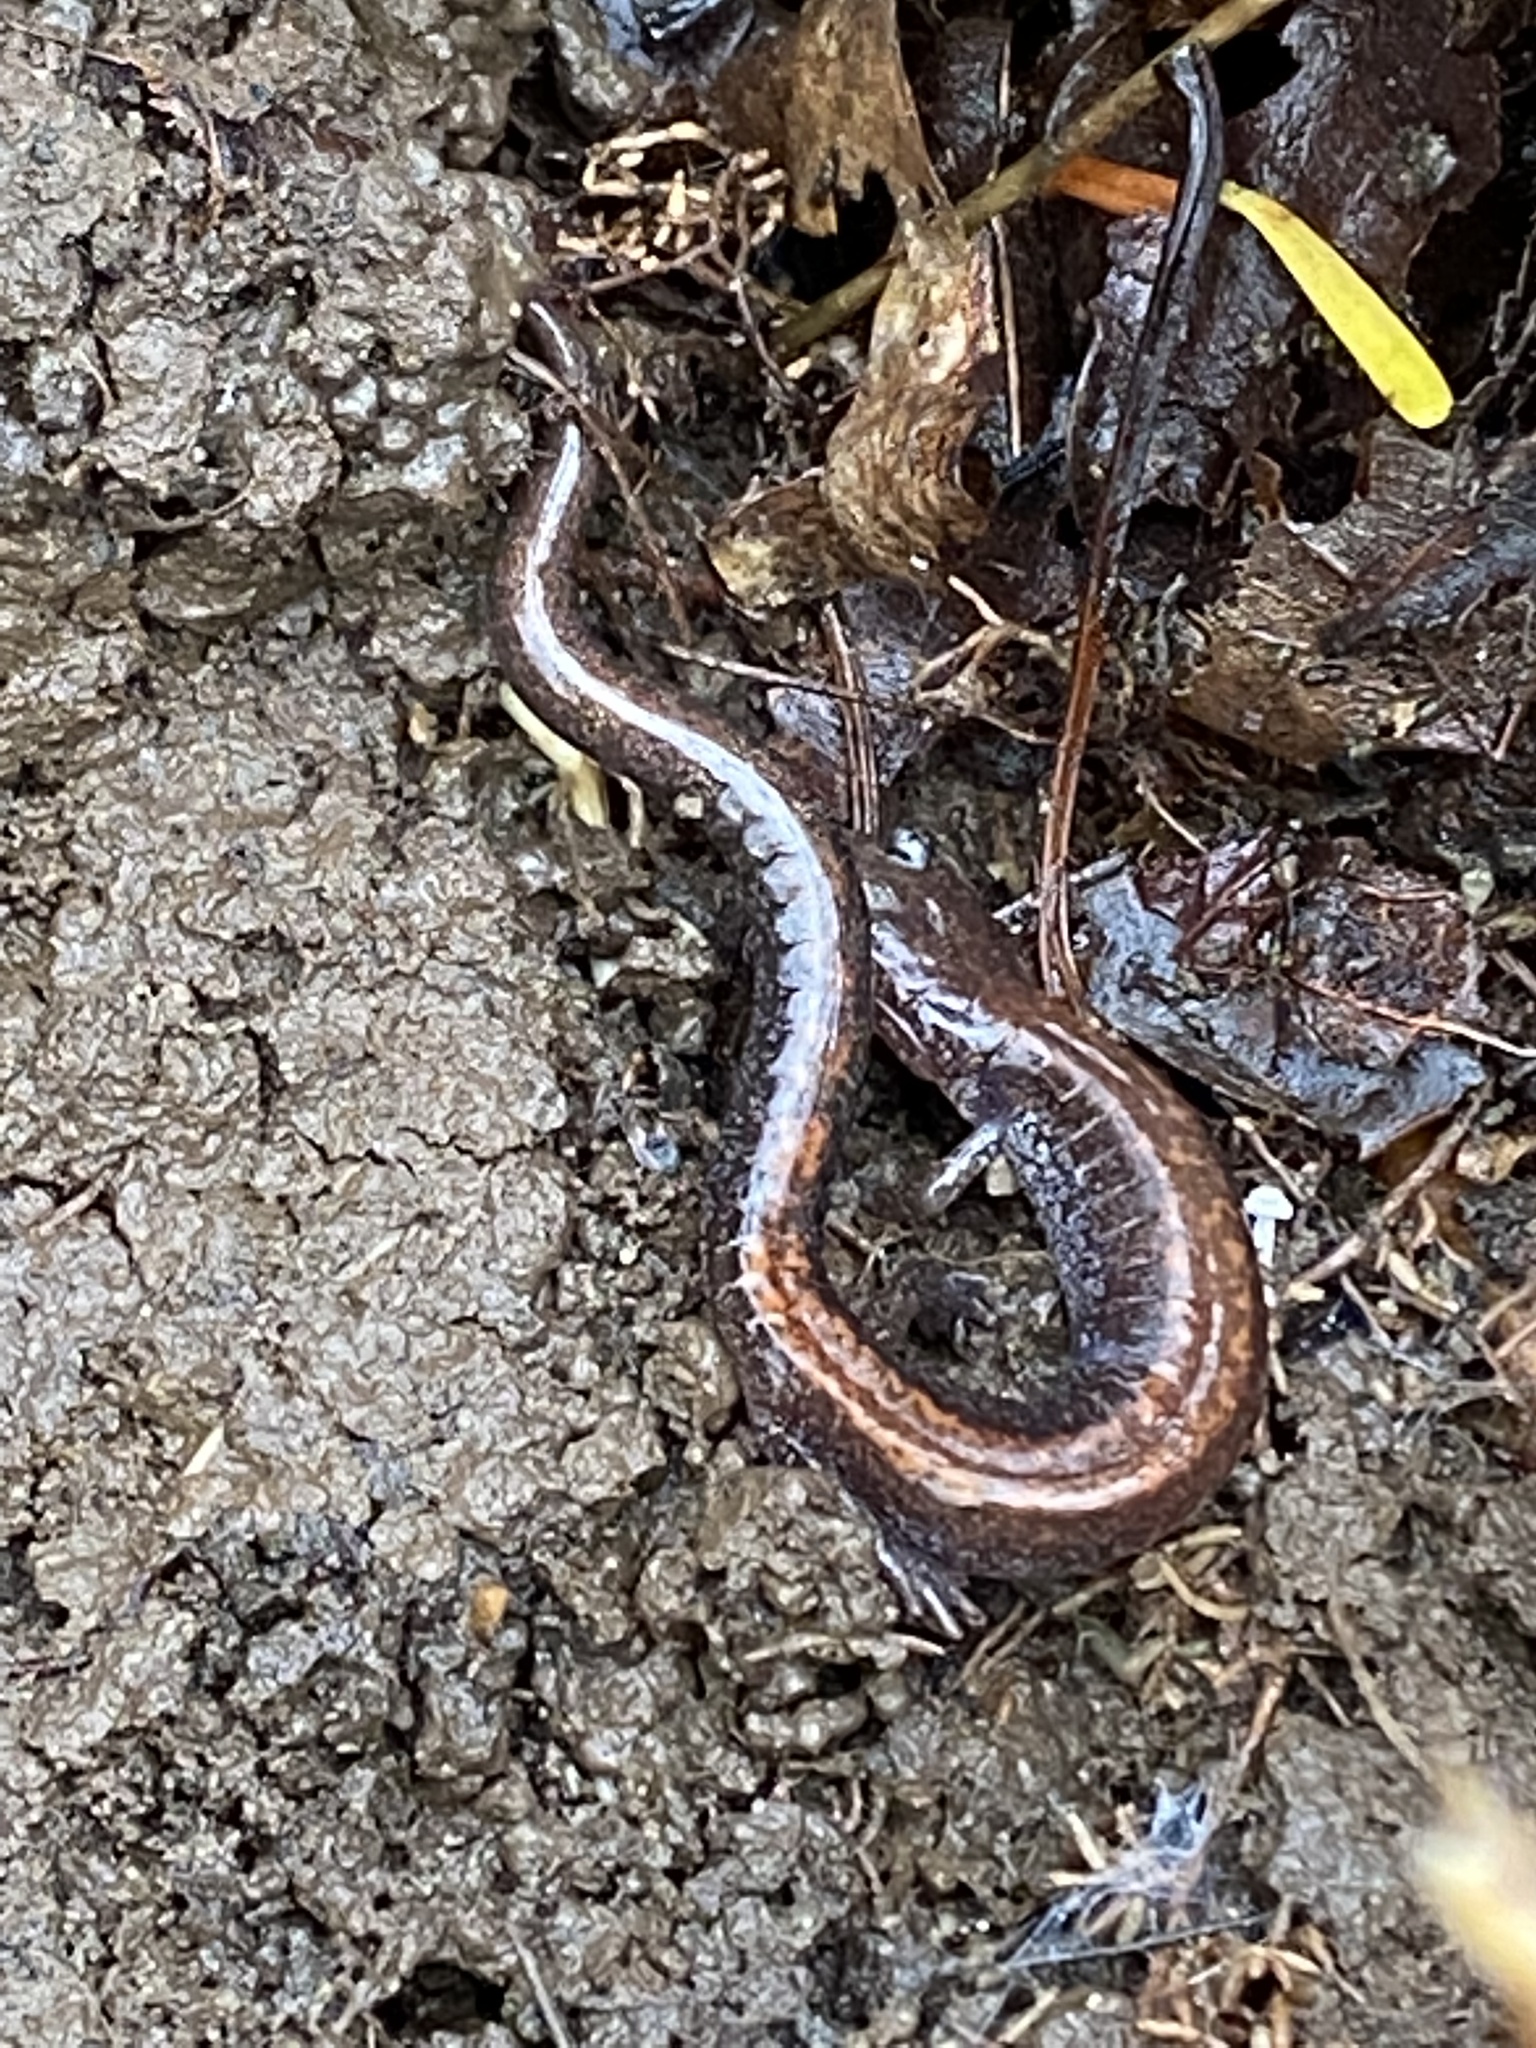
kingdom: Animalia
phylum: Chordata
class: Amphibia
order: Caudata
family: Plethodontidae
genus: Plethodon
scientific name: Plethodon cinereus
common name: Redback salamander
